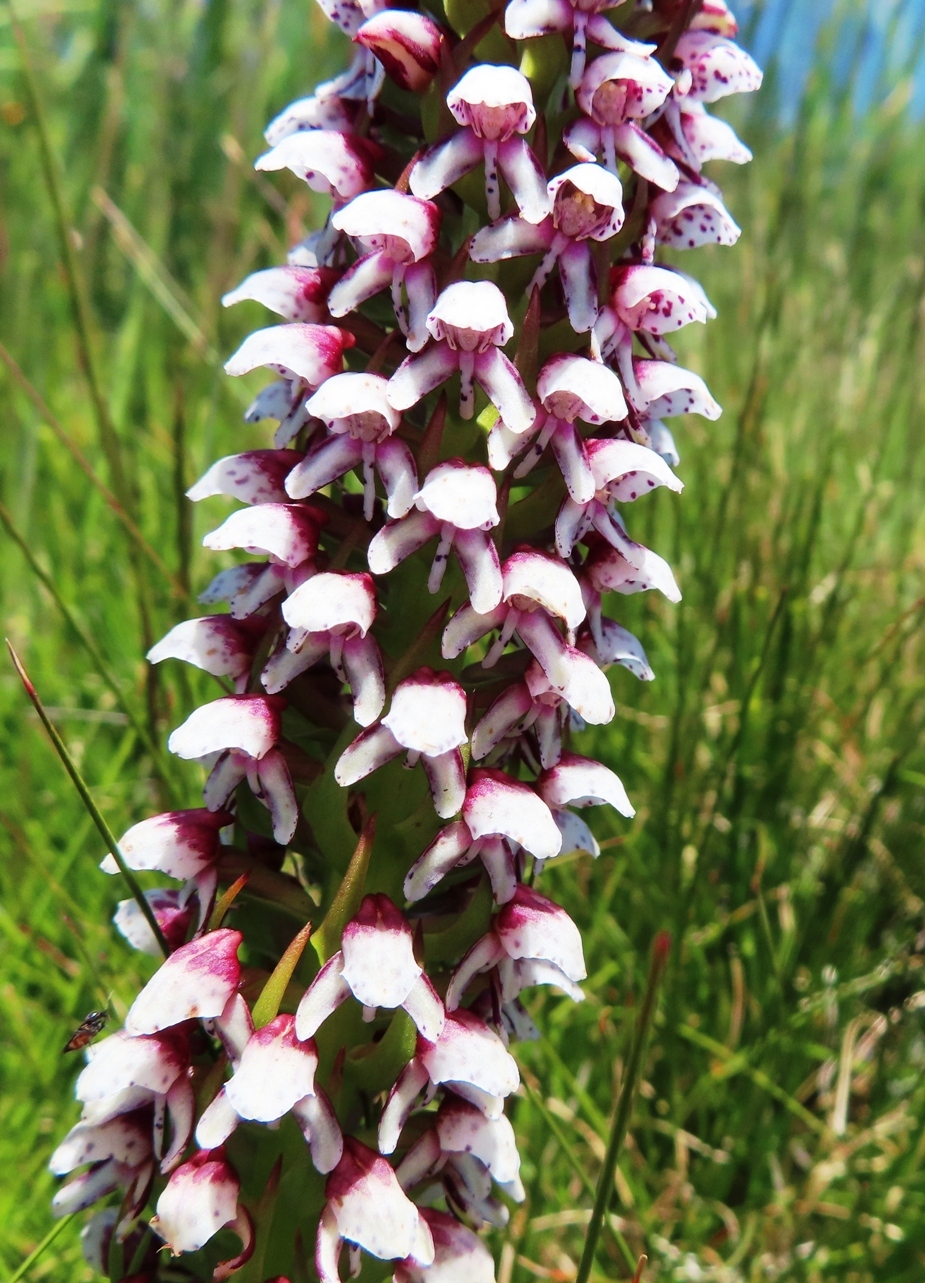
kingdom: Plantae
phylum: Tracheophyta
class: Liliopsida
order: Asparagales
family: Orchidaceae
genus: Disa
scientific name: Disa obtusa
